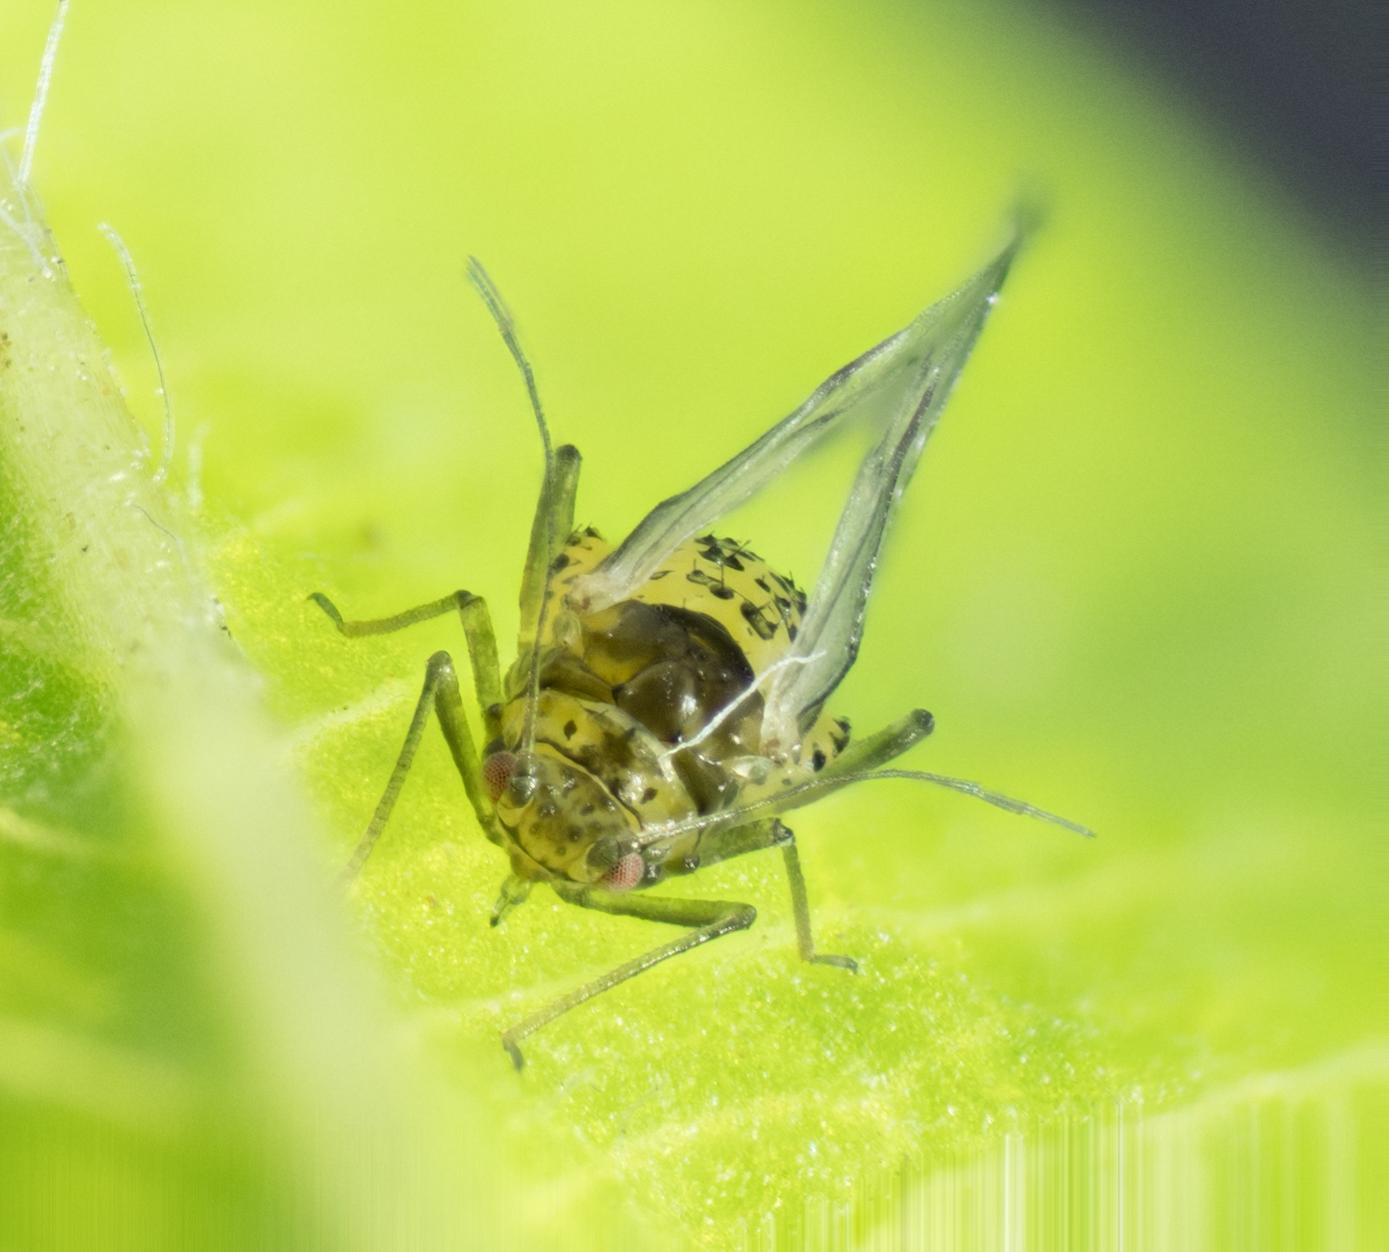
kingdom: Animalia
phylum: Arthropoda
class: Insecta
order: Hemiptera
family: Aphididae
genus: Therioaphis
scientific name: Therioaphis trifolii
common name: Spotted alfalfa aphid
